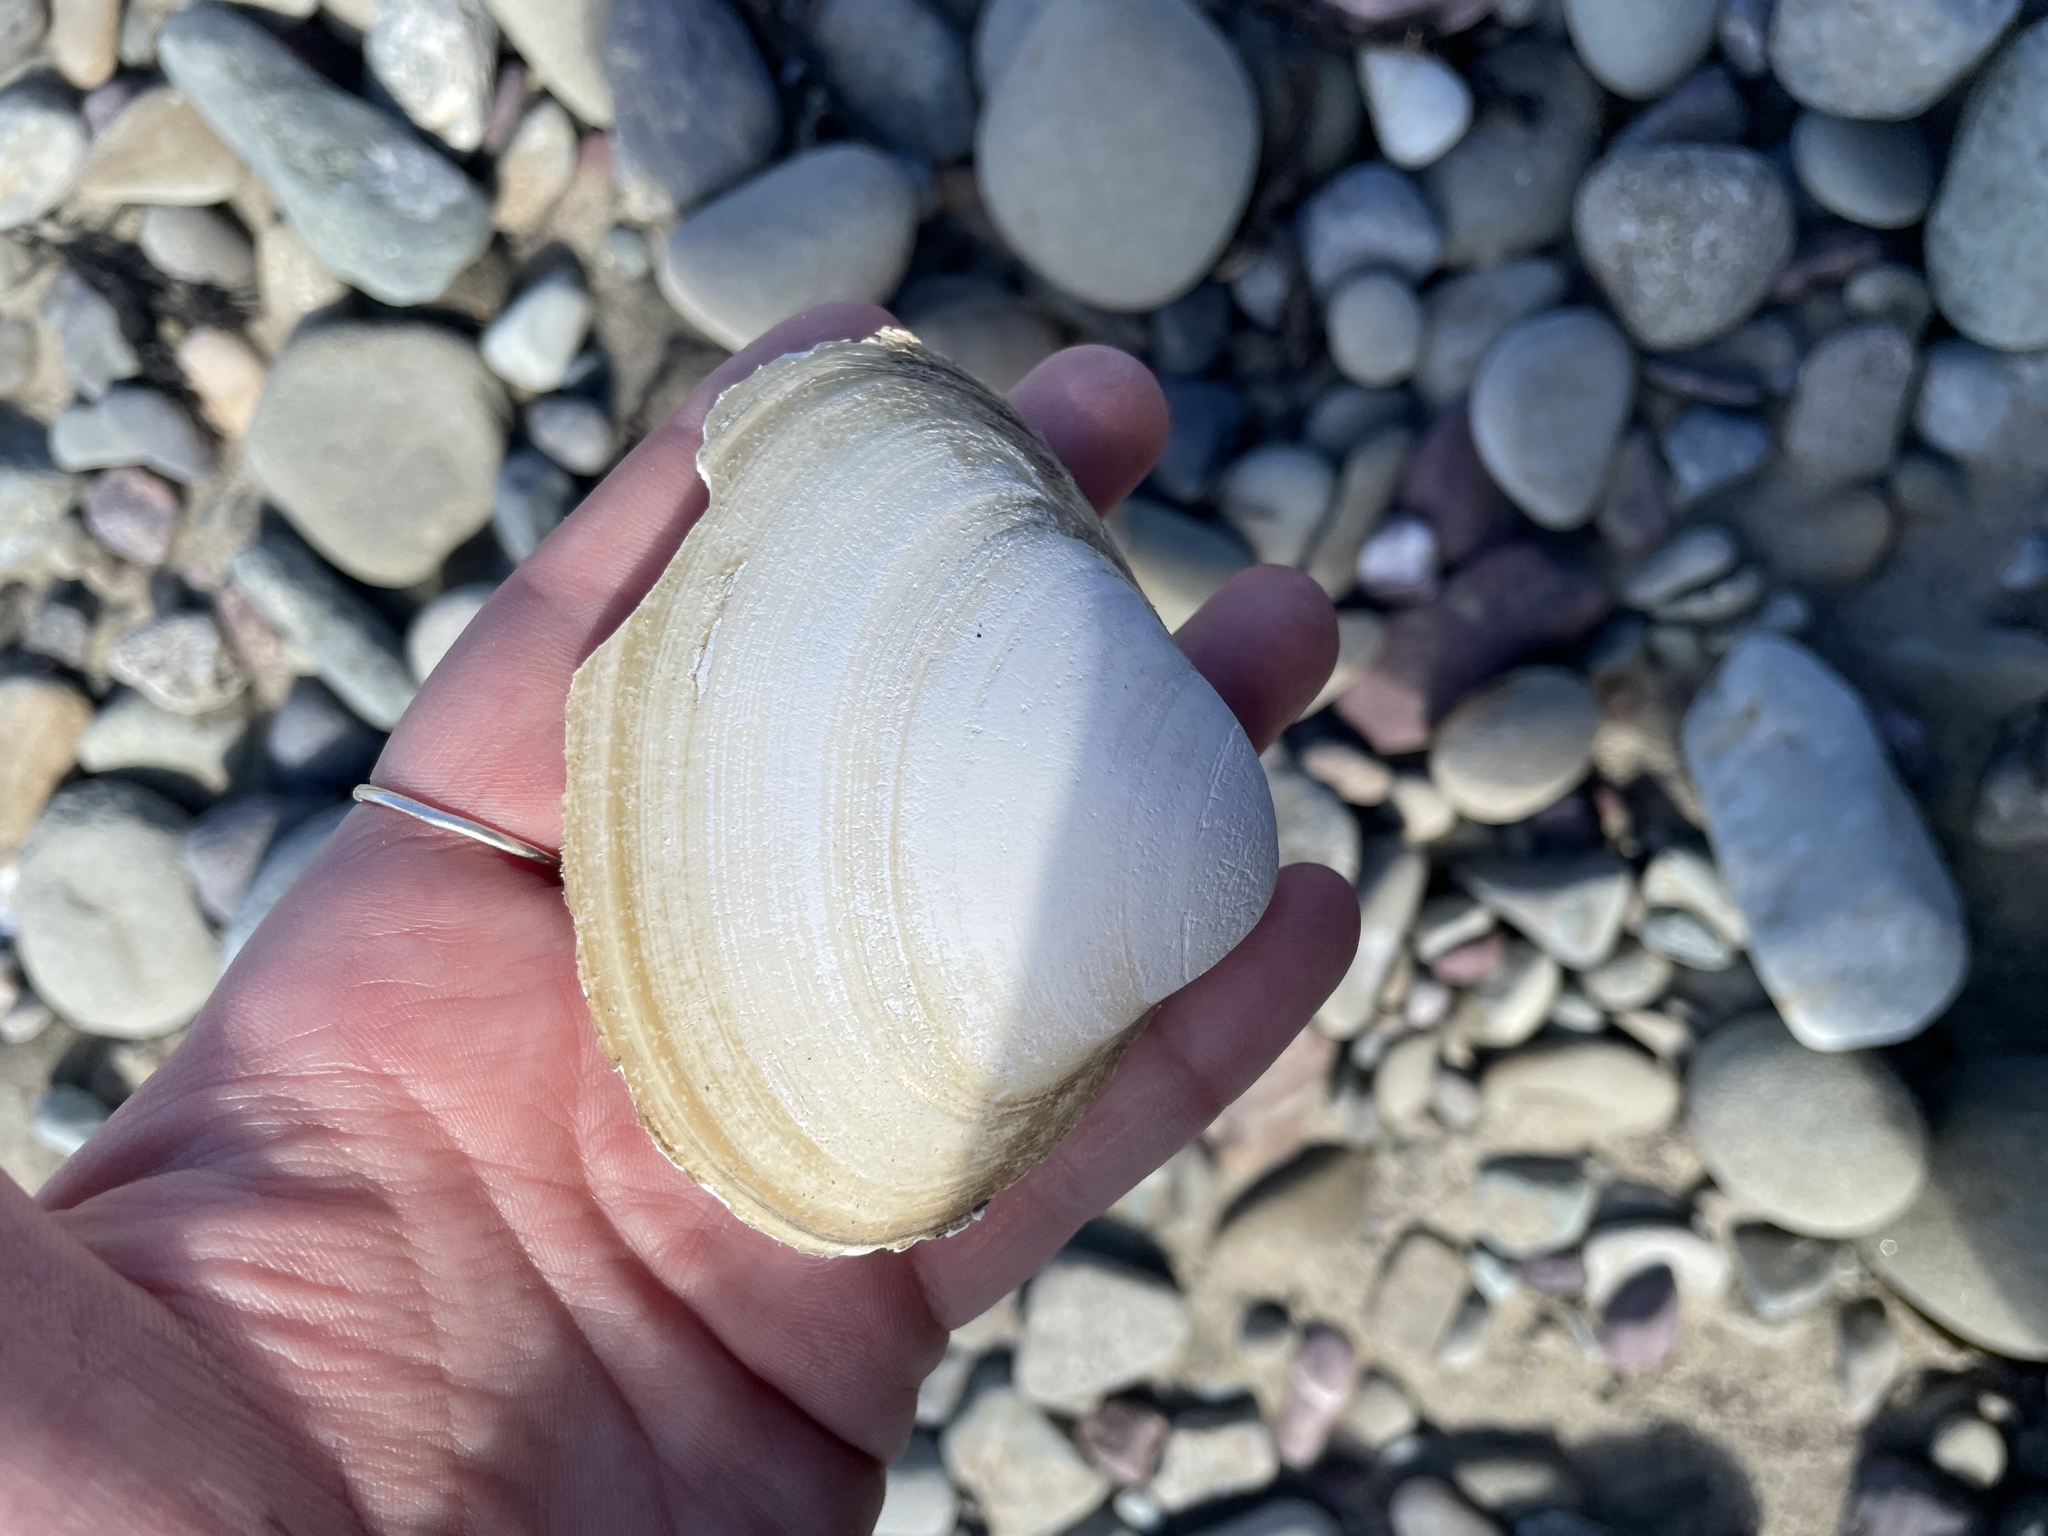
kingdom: Animalia
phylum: Mollusca
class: Bivalvia
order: Venerida
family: Mactridae
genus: Spisula
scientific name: Spisula solidissima
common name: Atlantic surf clam
